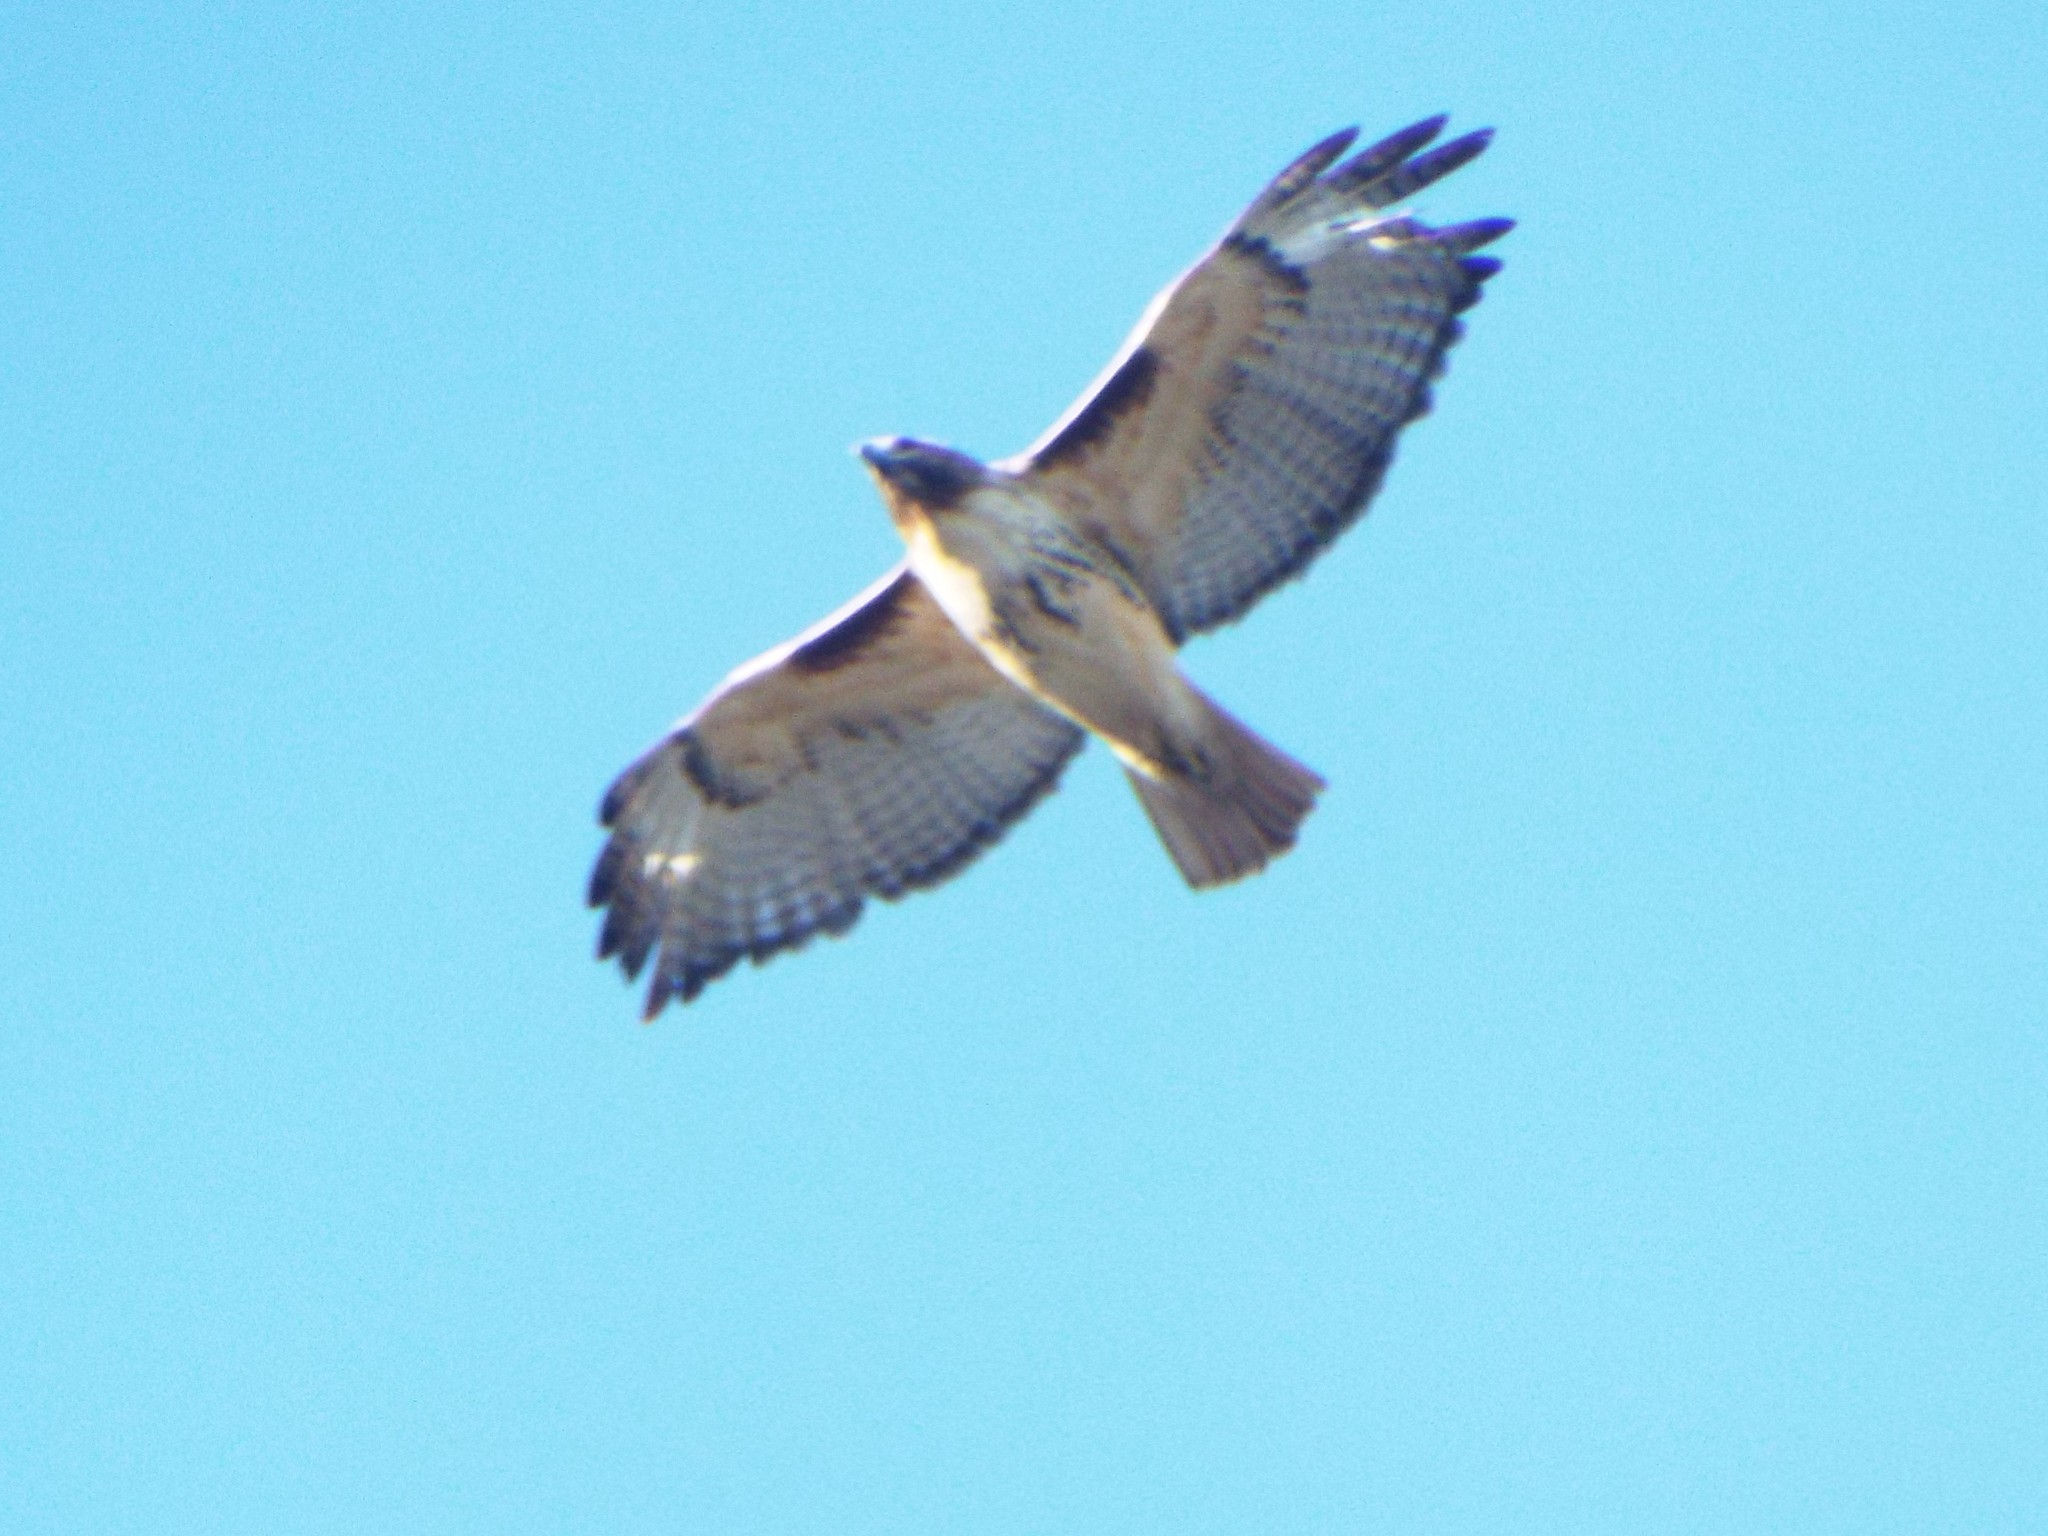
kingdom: Animalia
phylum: Chordata
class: Aves
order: Accipitriformes
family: Accipitridae
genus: Buteo
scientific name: Buteo jamaicensis
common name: Red-tailed hawk
